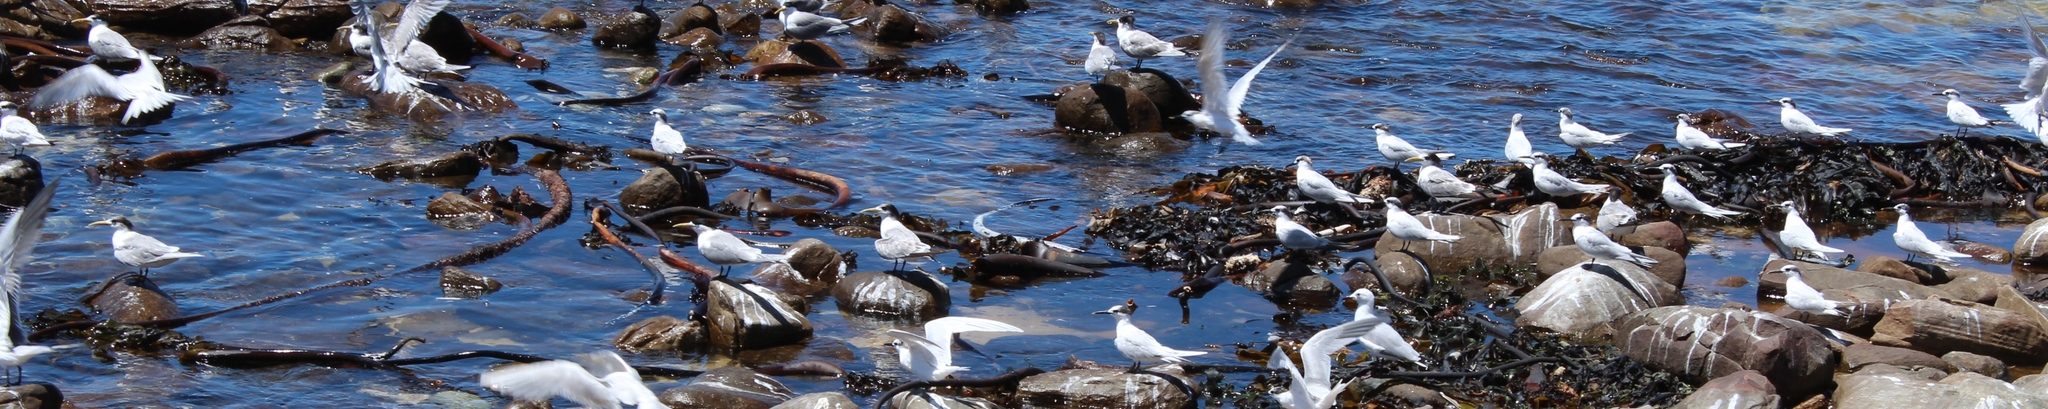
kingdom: Animalia
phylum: Chordata
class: Aves
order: Charadriiformes
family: Laridae
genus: Thalasseus
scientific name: Thalasseus bergii
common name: Greater crested tern
